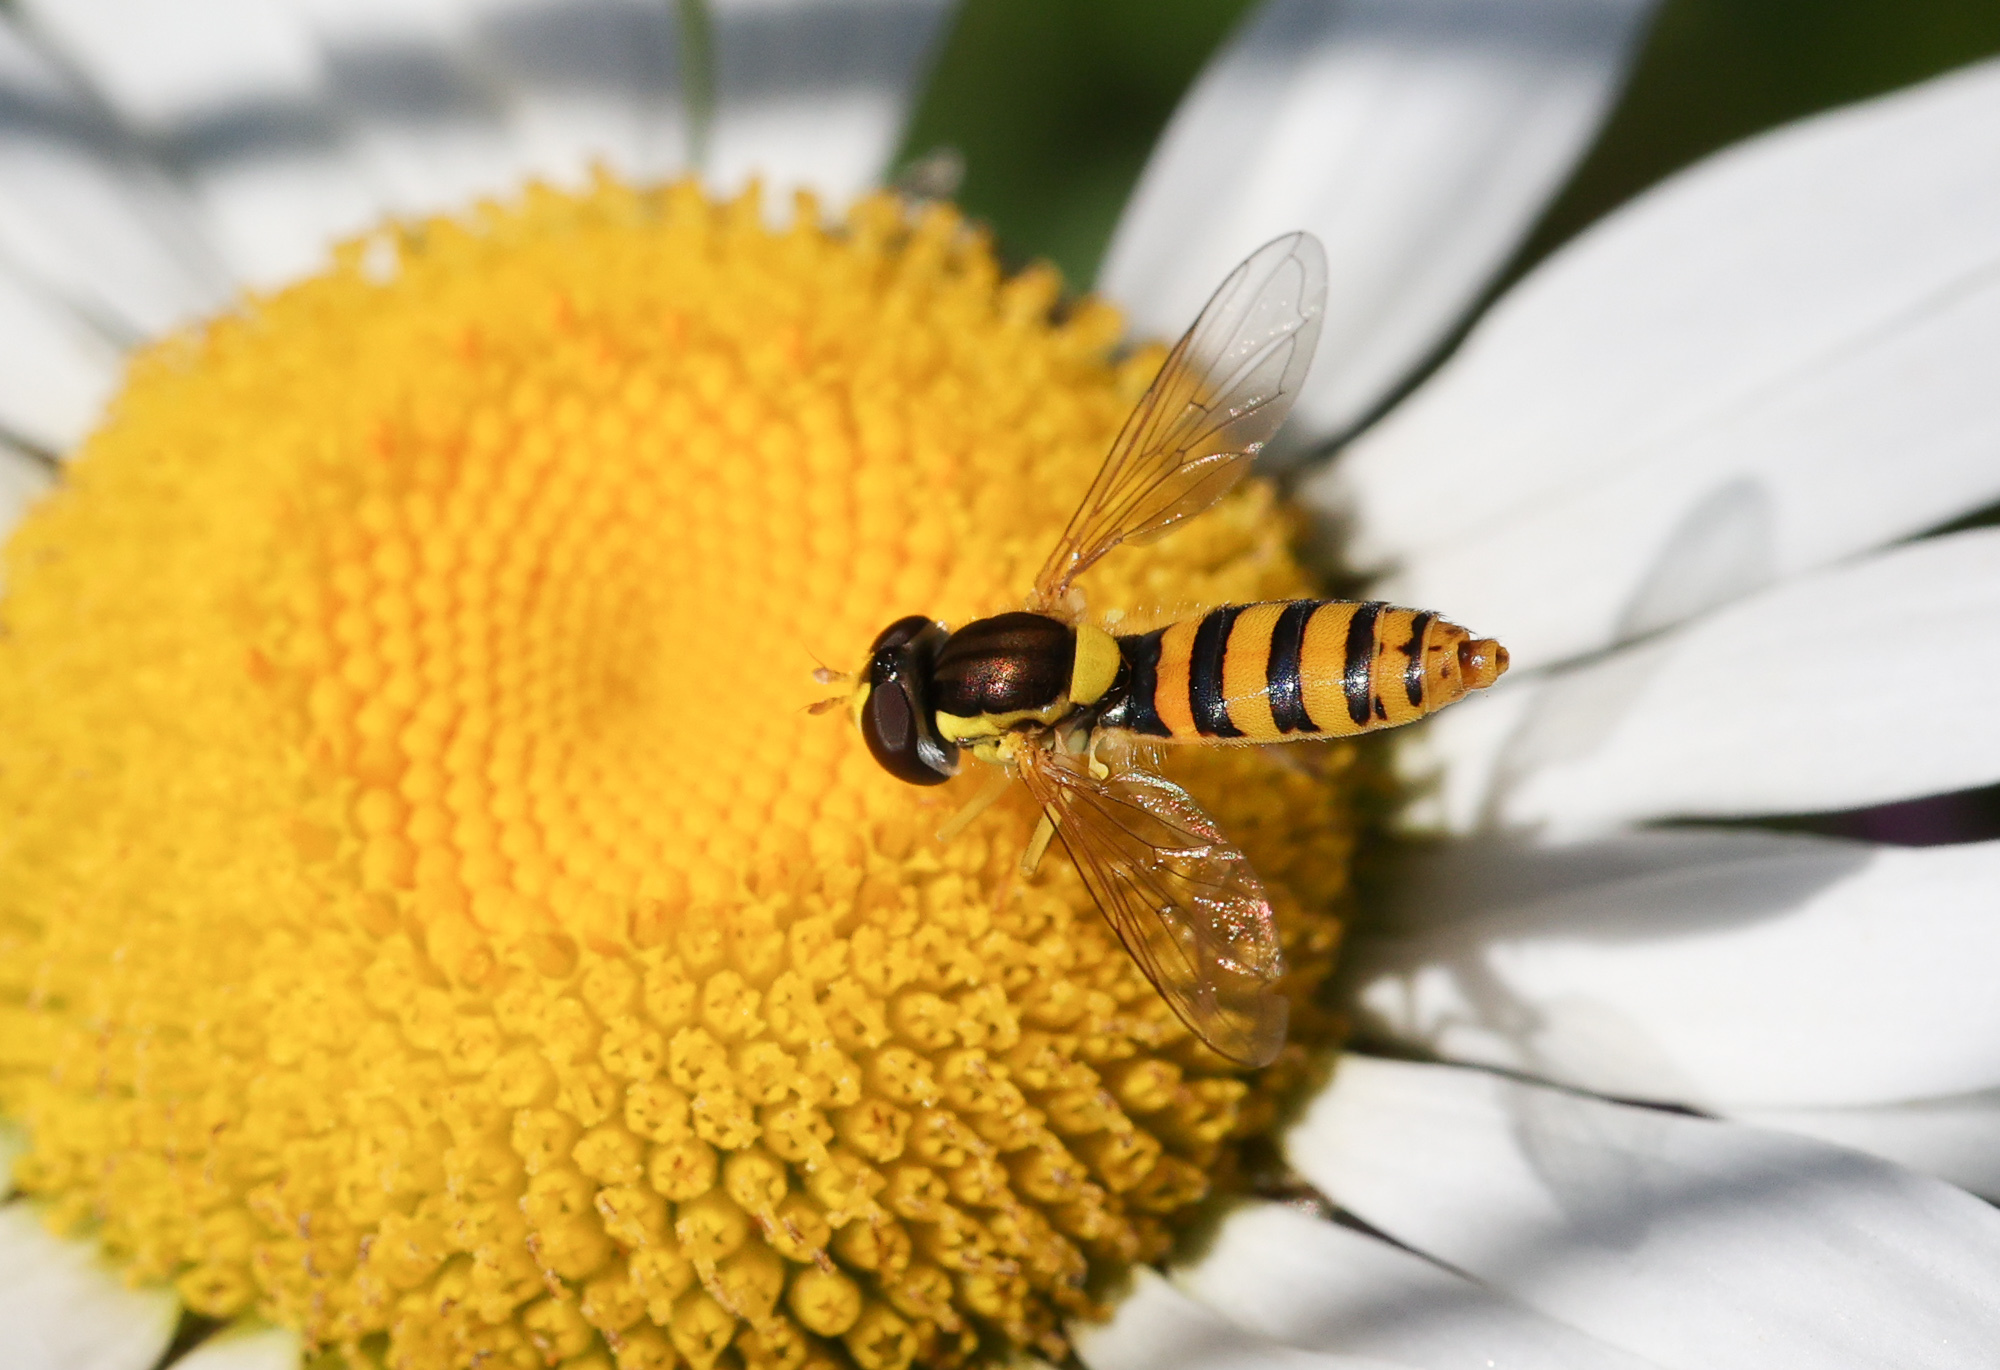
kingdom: Animalia
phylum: Arthropoda
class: Insecta
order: Diptera
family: Syrphidae
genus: Sphaerophoria
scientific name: Sphaerophoria
